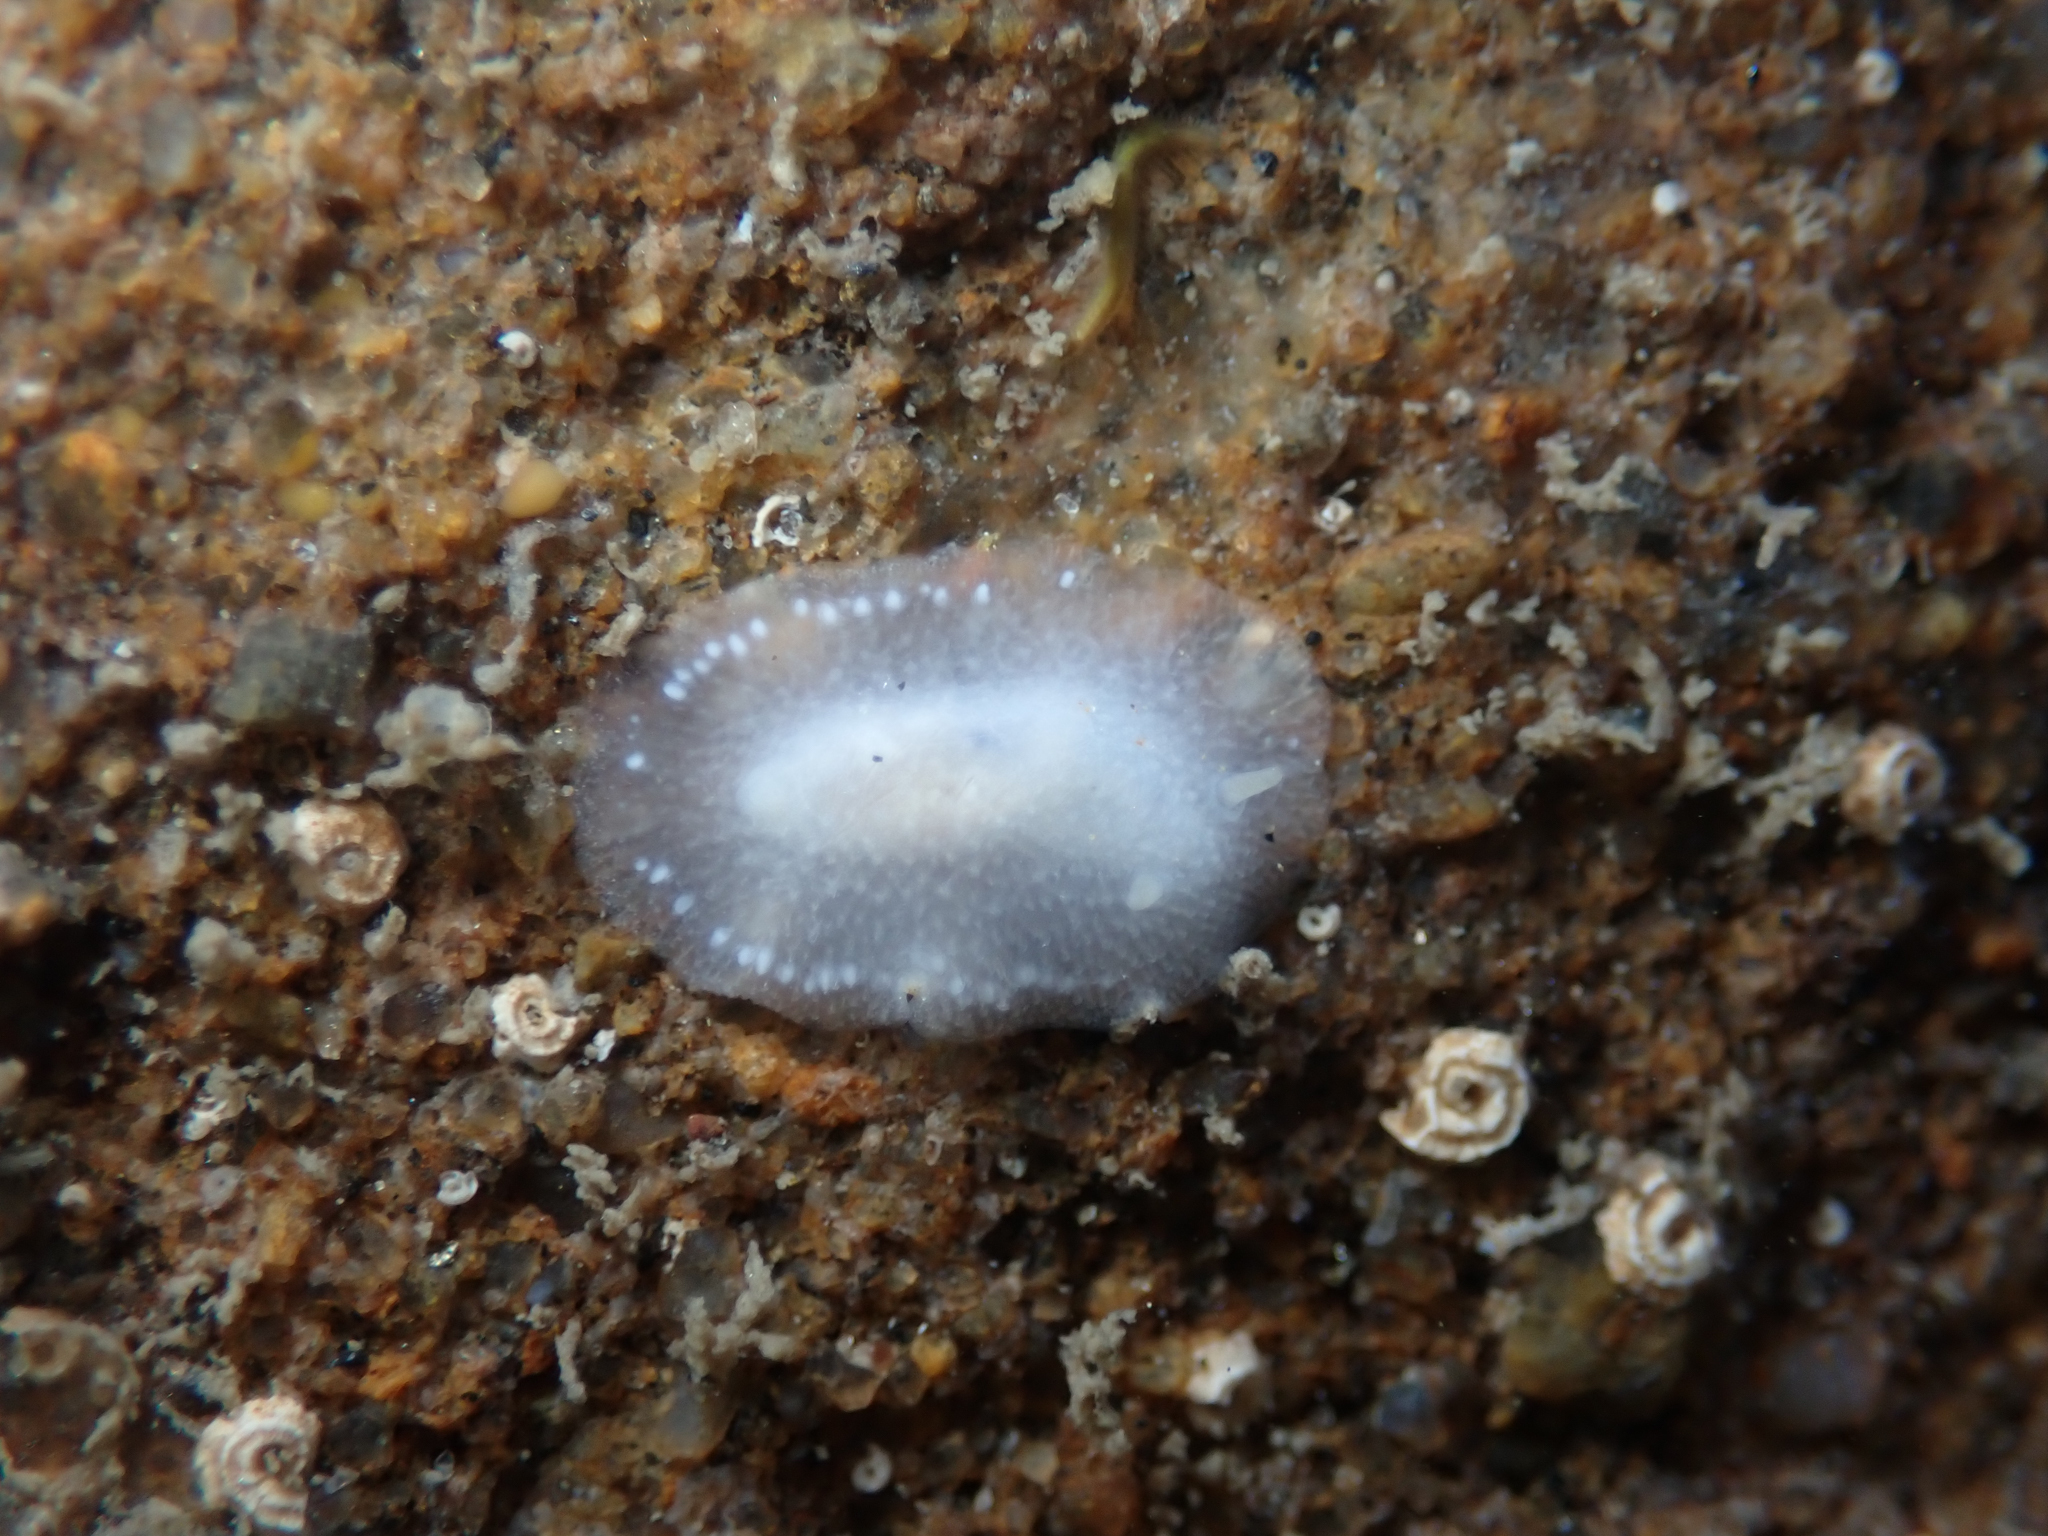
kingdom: Animalia
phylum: Mollusca
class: Gastropoda
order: Nudibranchia
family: Dorididae
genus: Conualevia
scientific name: Conualevia alba
